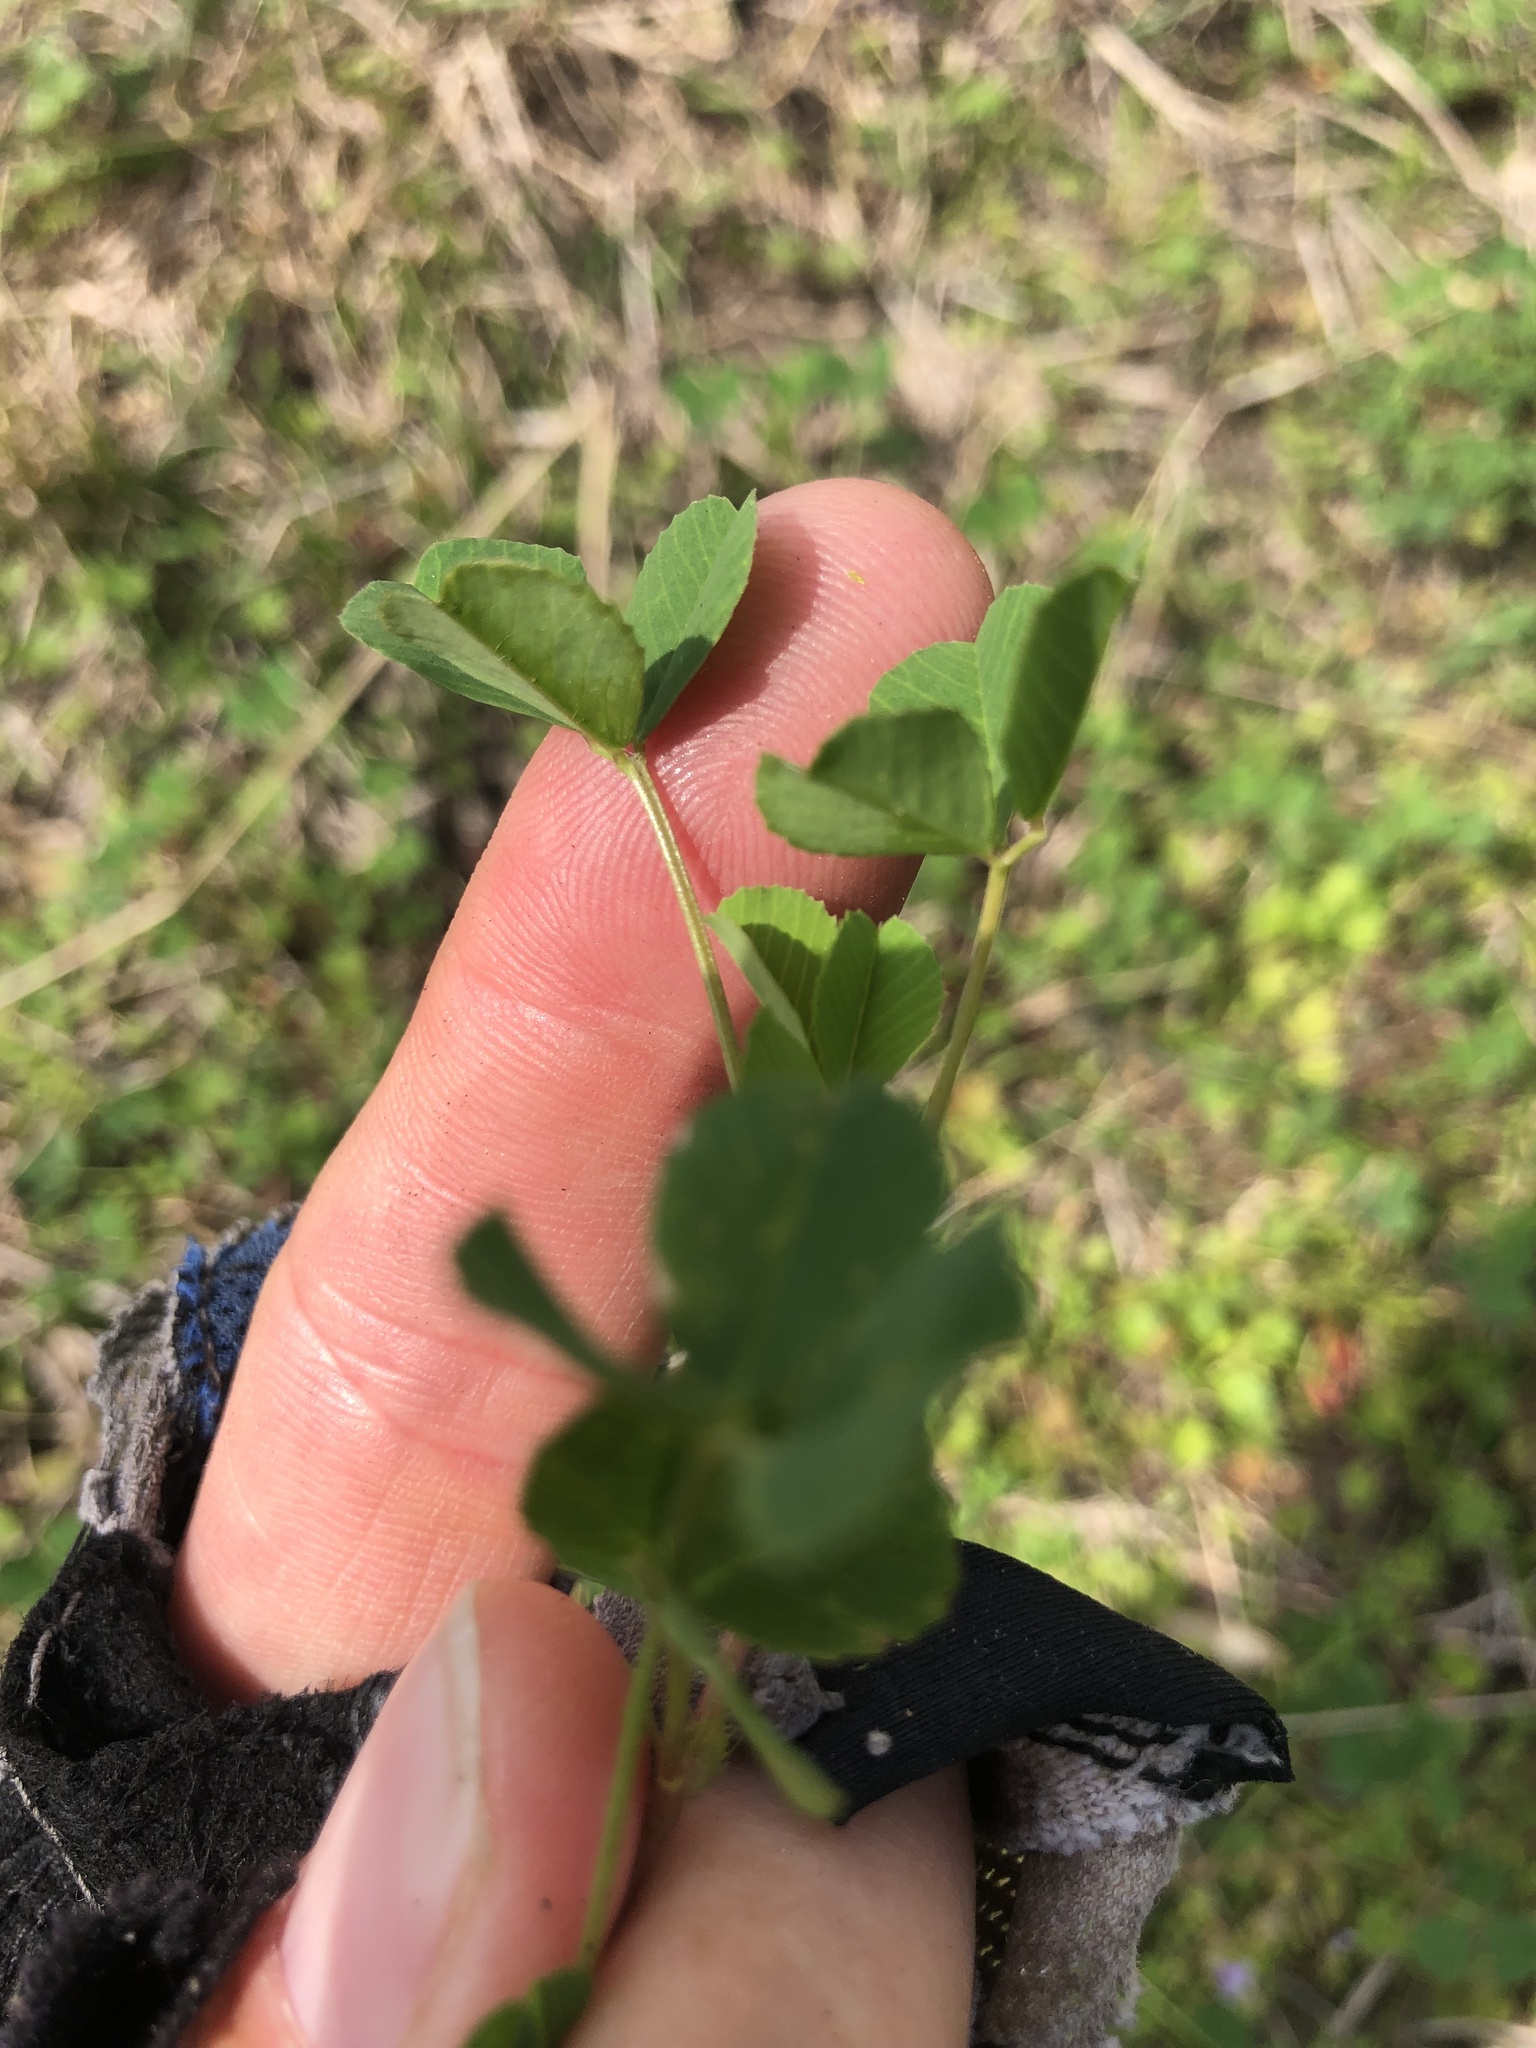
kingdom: Plantae
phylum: Tracheophyta
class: Magnoliopsida
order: Fabales
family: Fabaceae
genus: Medicago
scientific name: Medicago polymorpha
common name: Burclover
